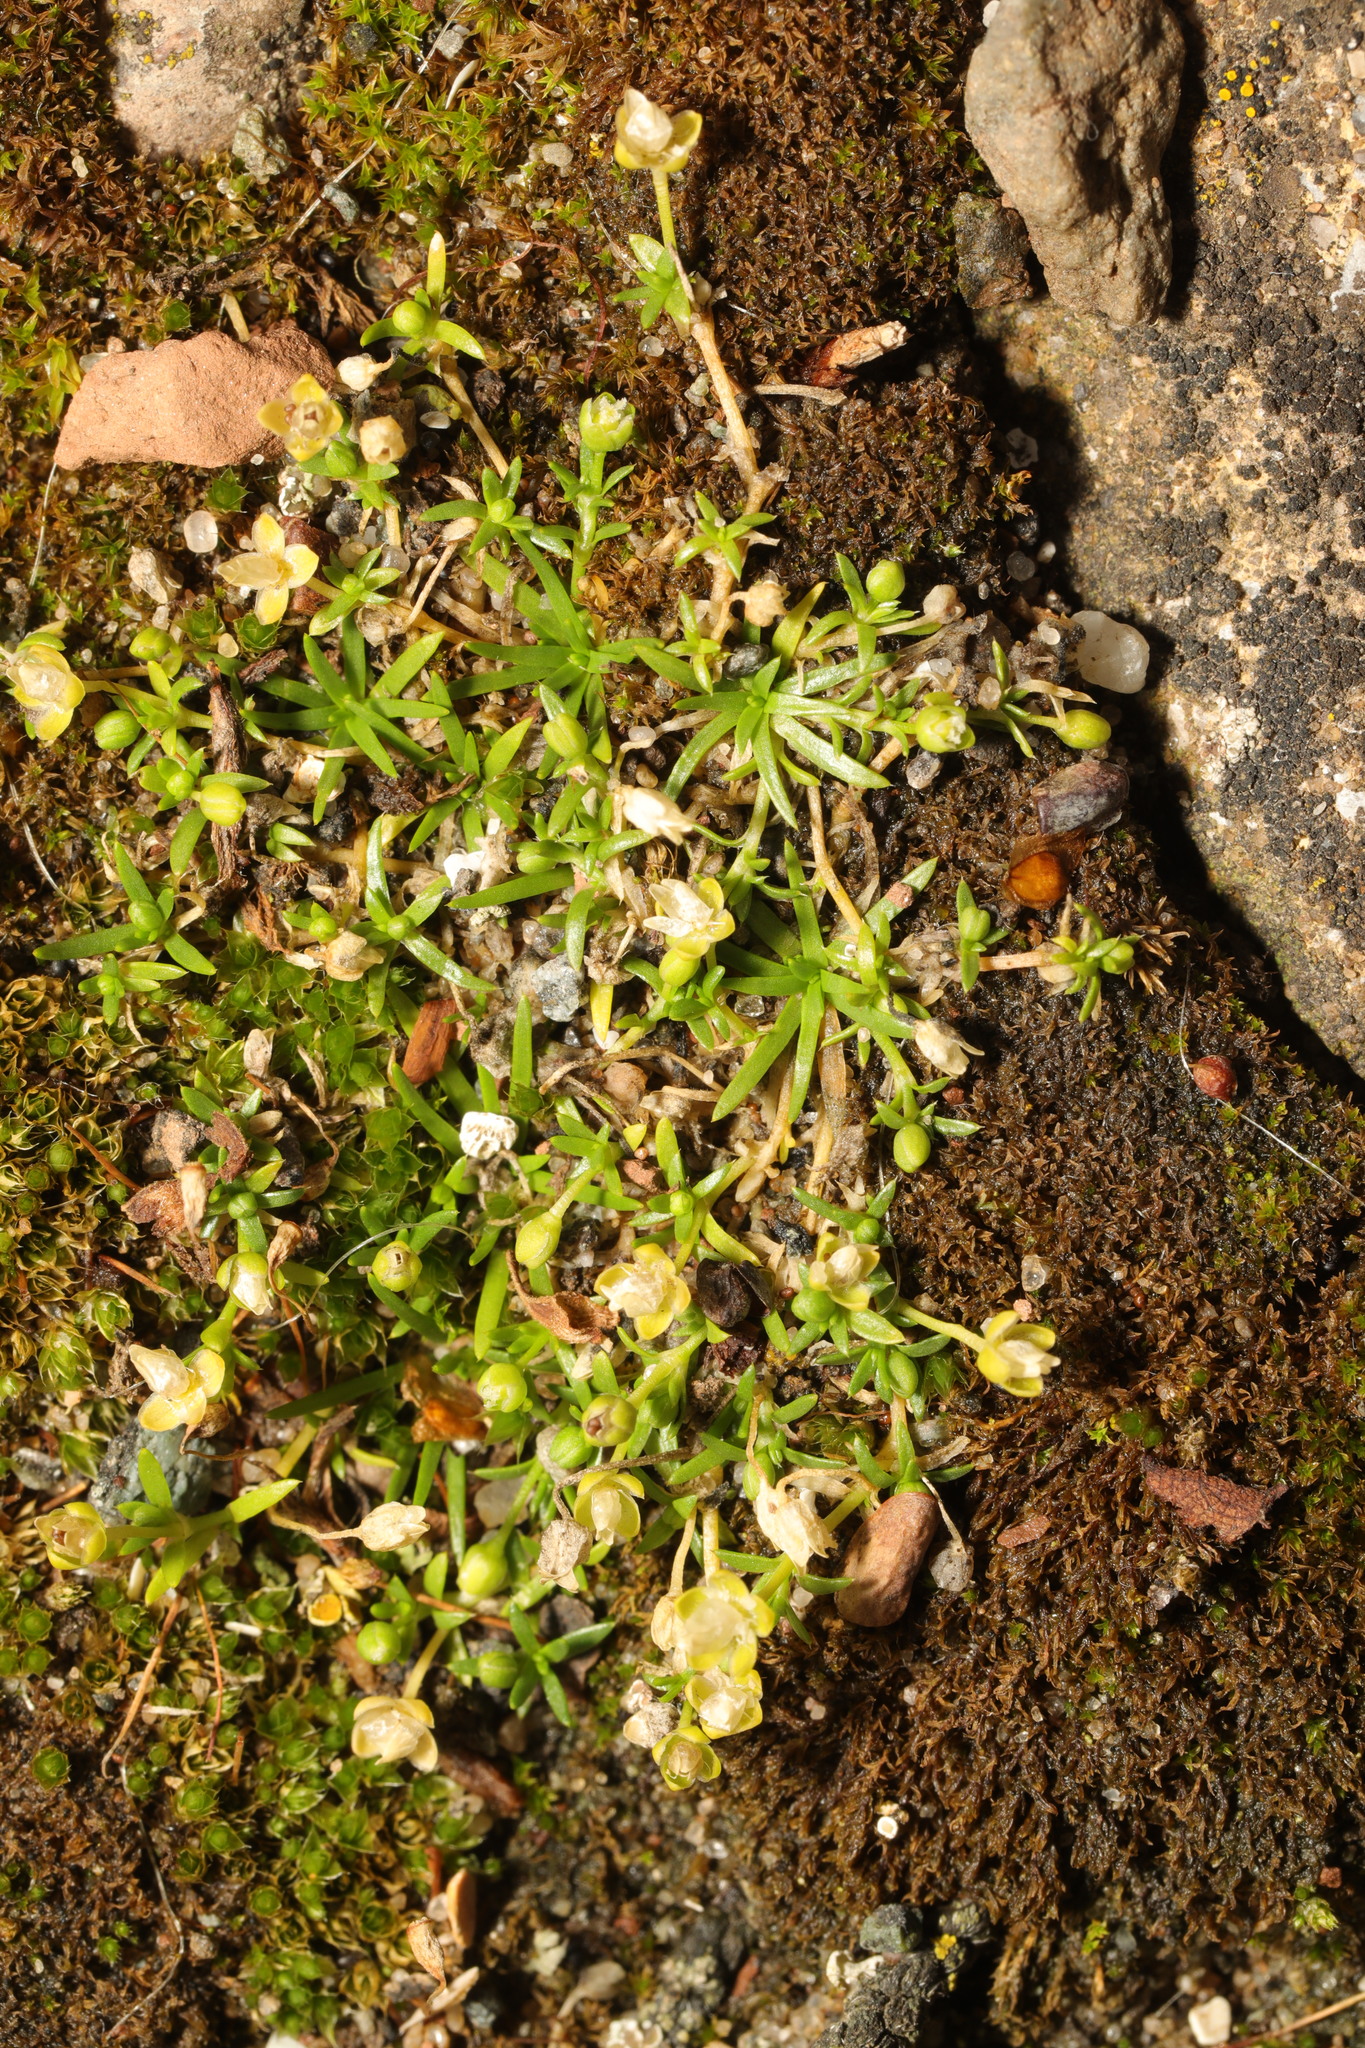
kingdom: Plantae
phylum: Tracheophyta
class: Magnoliopsida
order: Caryophyllales
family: Caryophyllaceae
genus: Sagina
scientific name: Sagina procumbens
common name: Procumbent pearlwort
